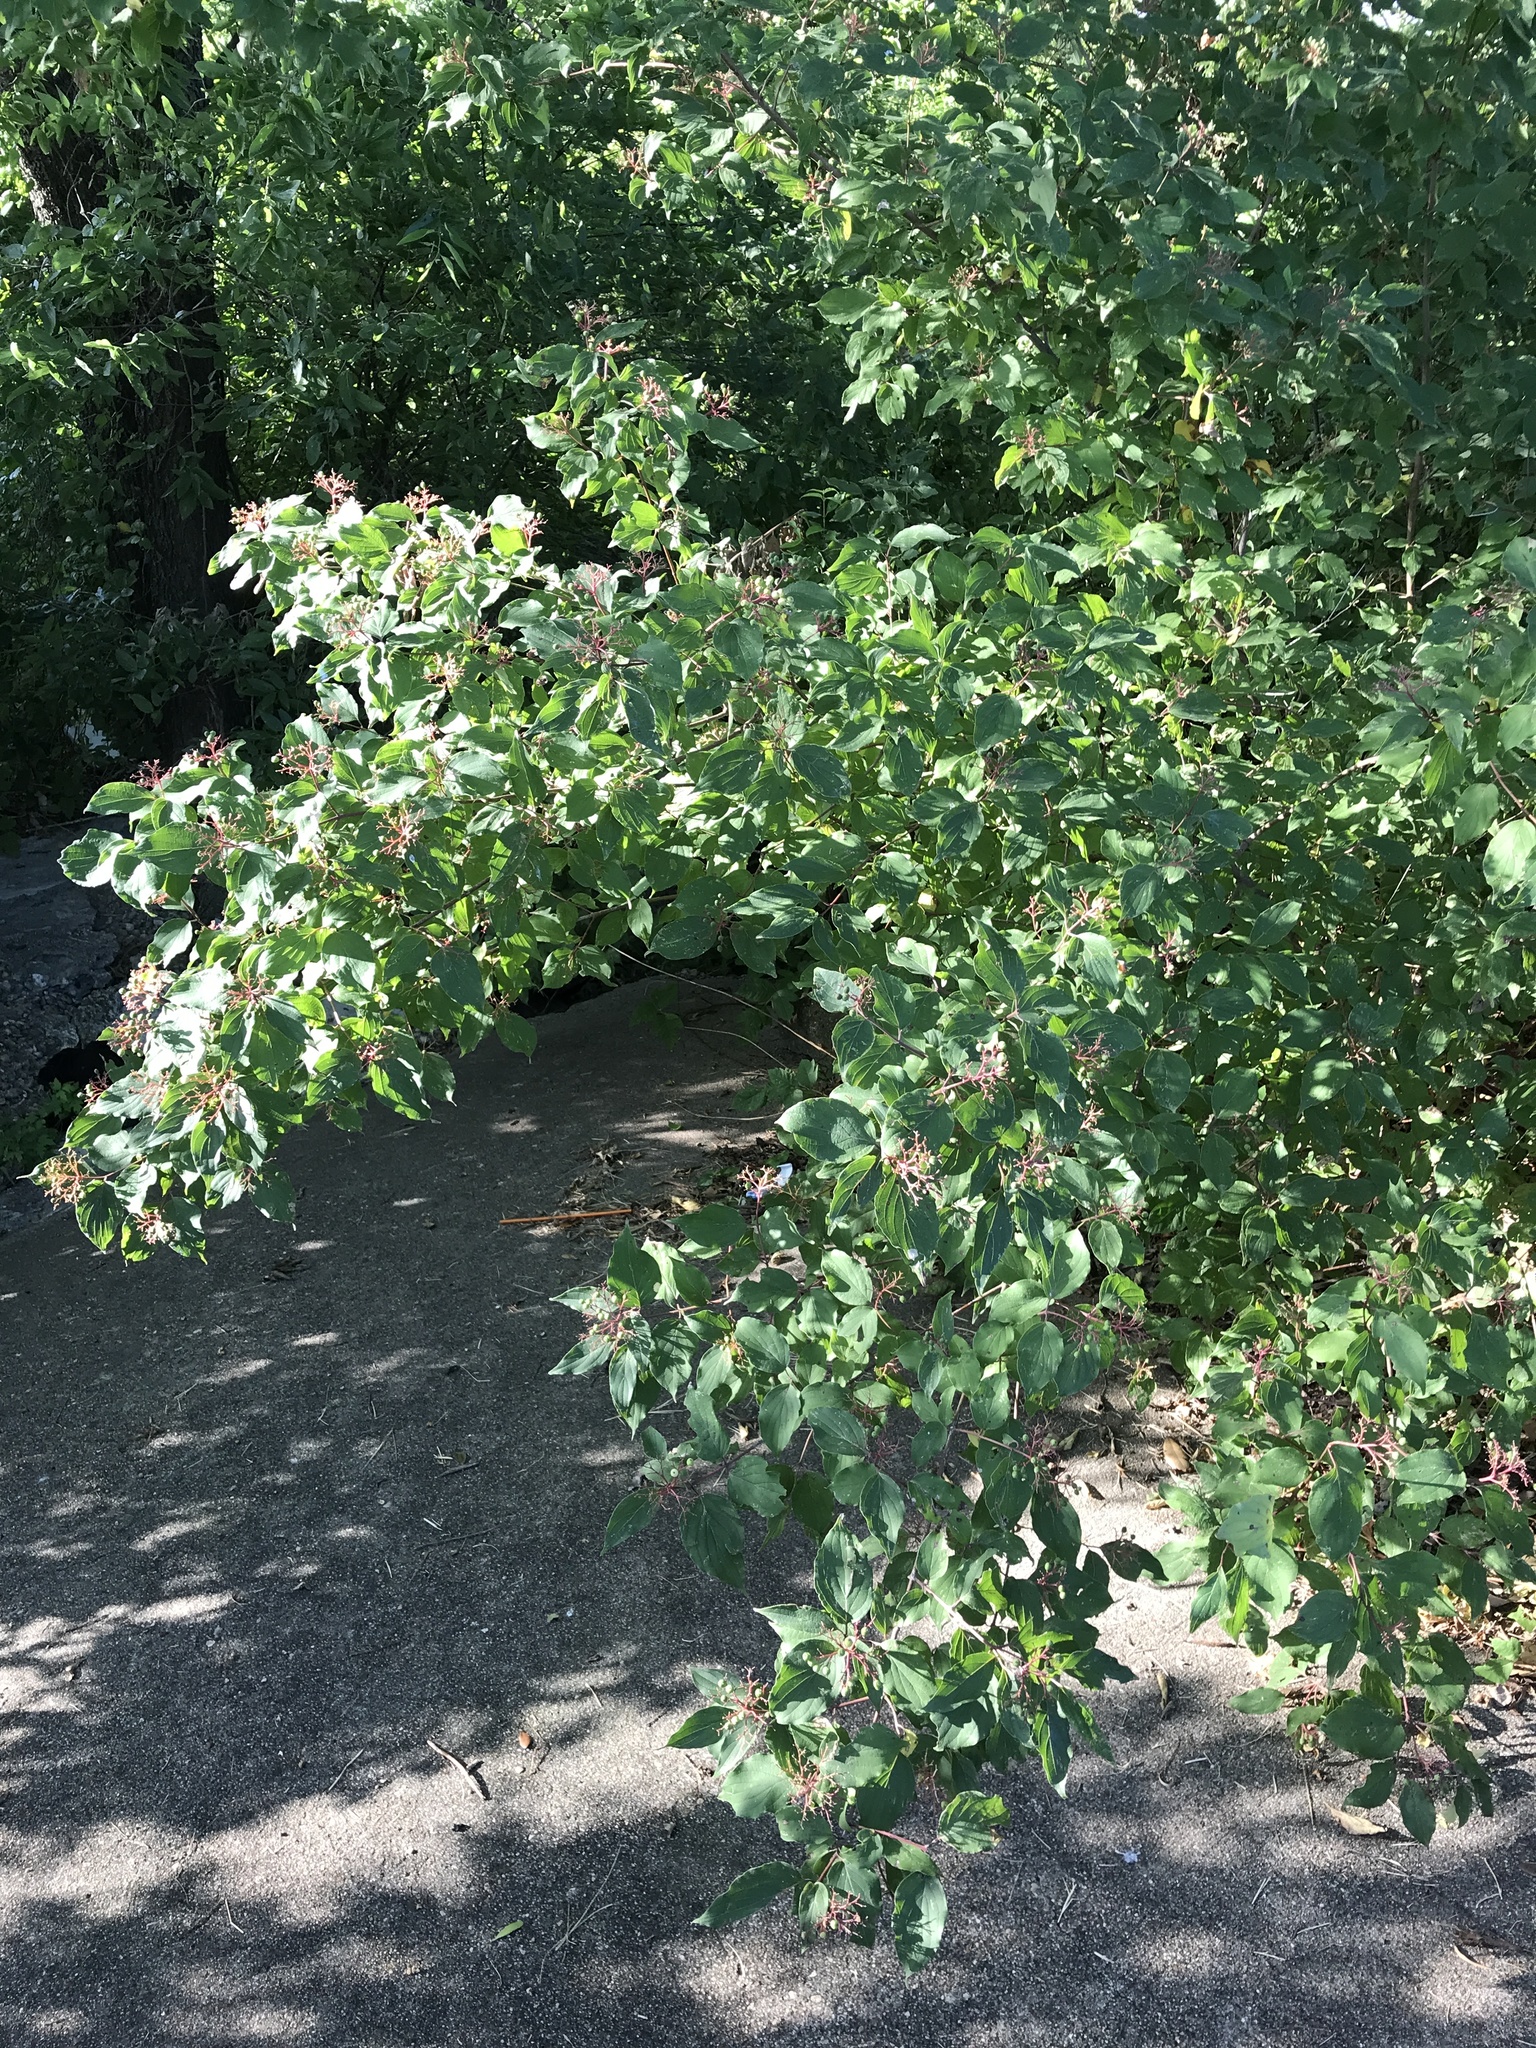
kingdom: Plantae
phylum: Tracheophyta
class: Magnoliopsida
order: Cornales
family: Cornaceae
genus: Cornus
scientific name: Cornus drummondii
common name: Rough-leaf dogwood
